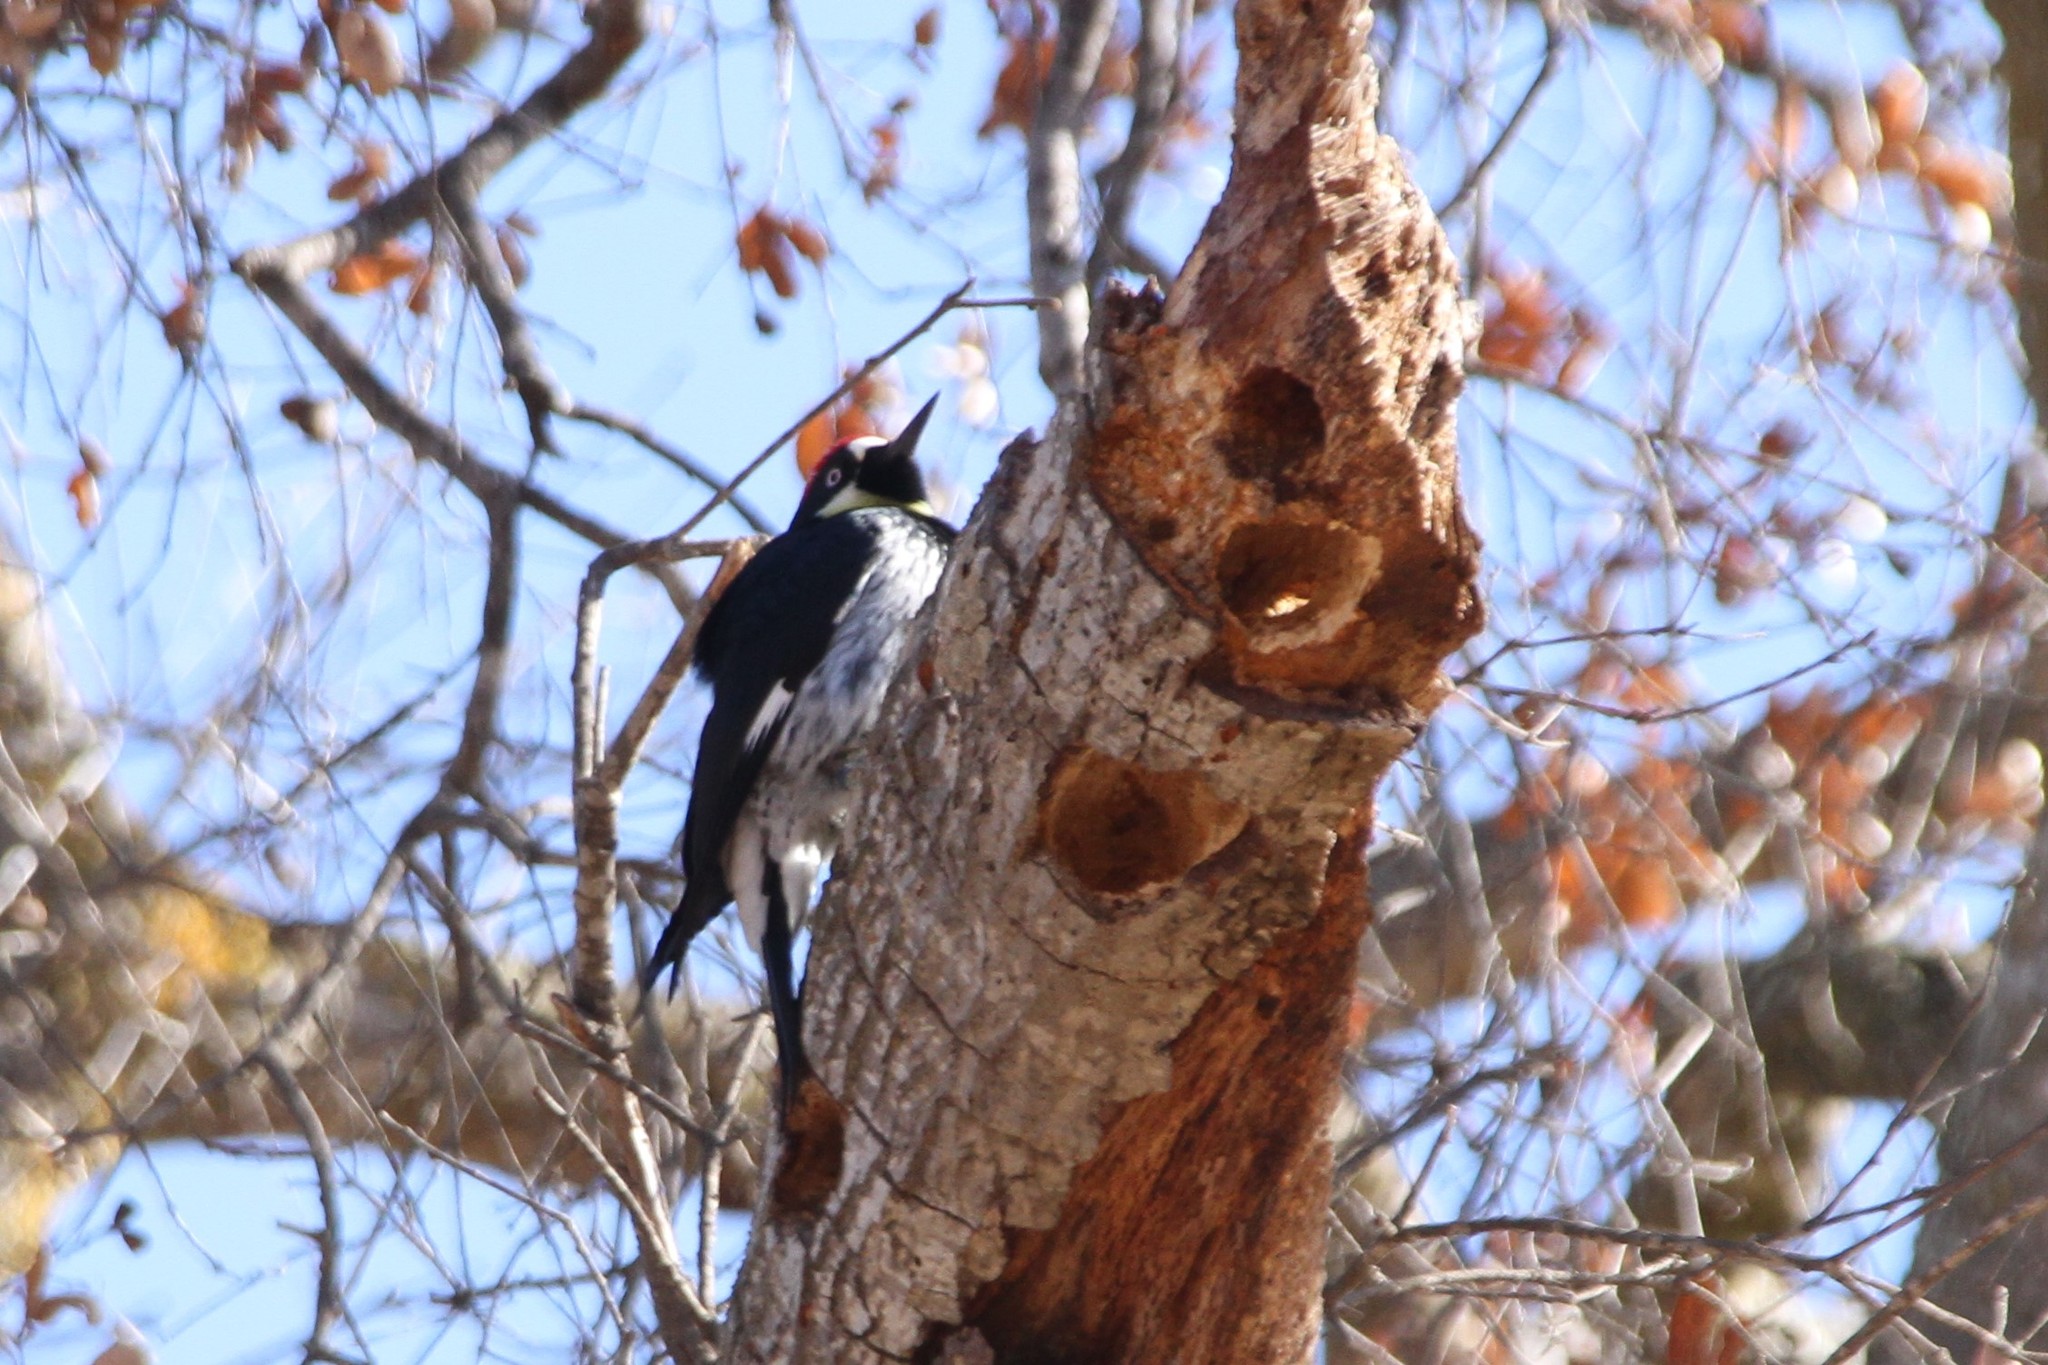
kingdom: Animalia
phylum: Chordata
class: Aves
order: Piciformes
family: Picidae
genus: Melanerpes
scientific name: Melanerpes formicivorus
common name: Acorn woodpecker
